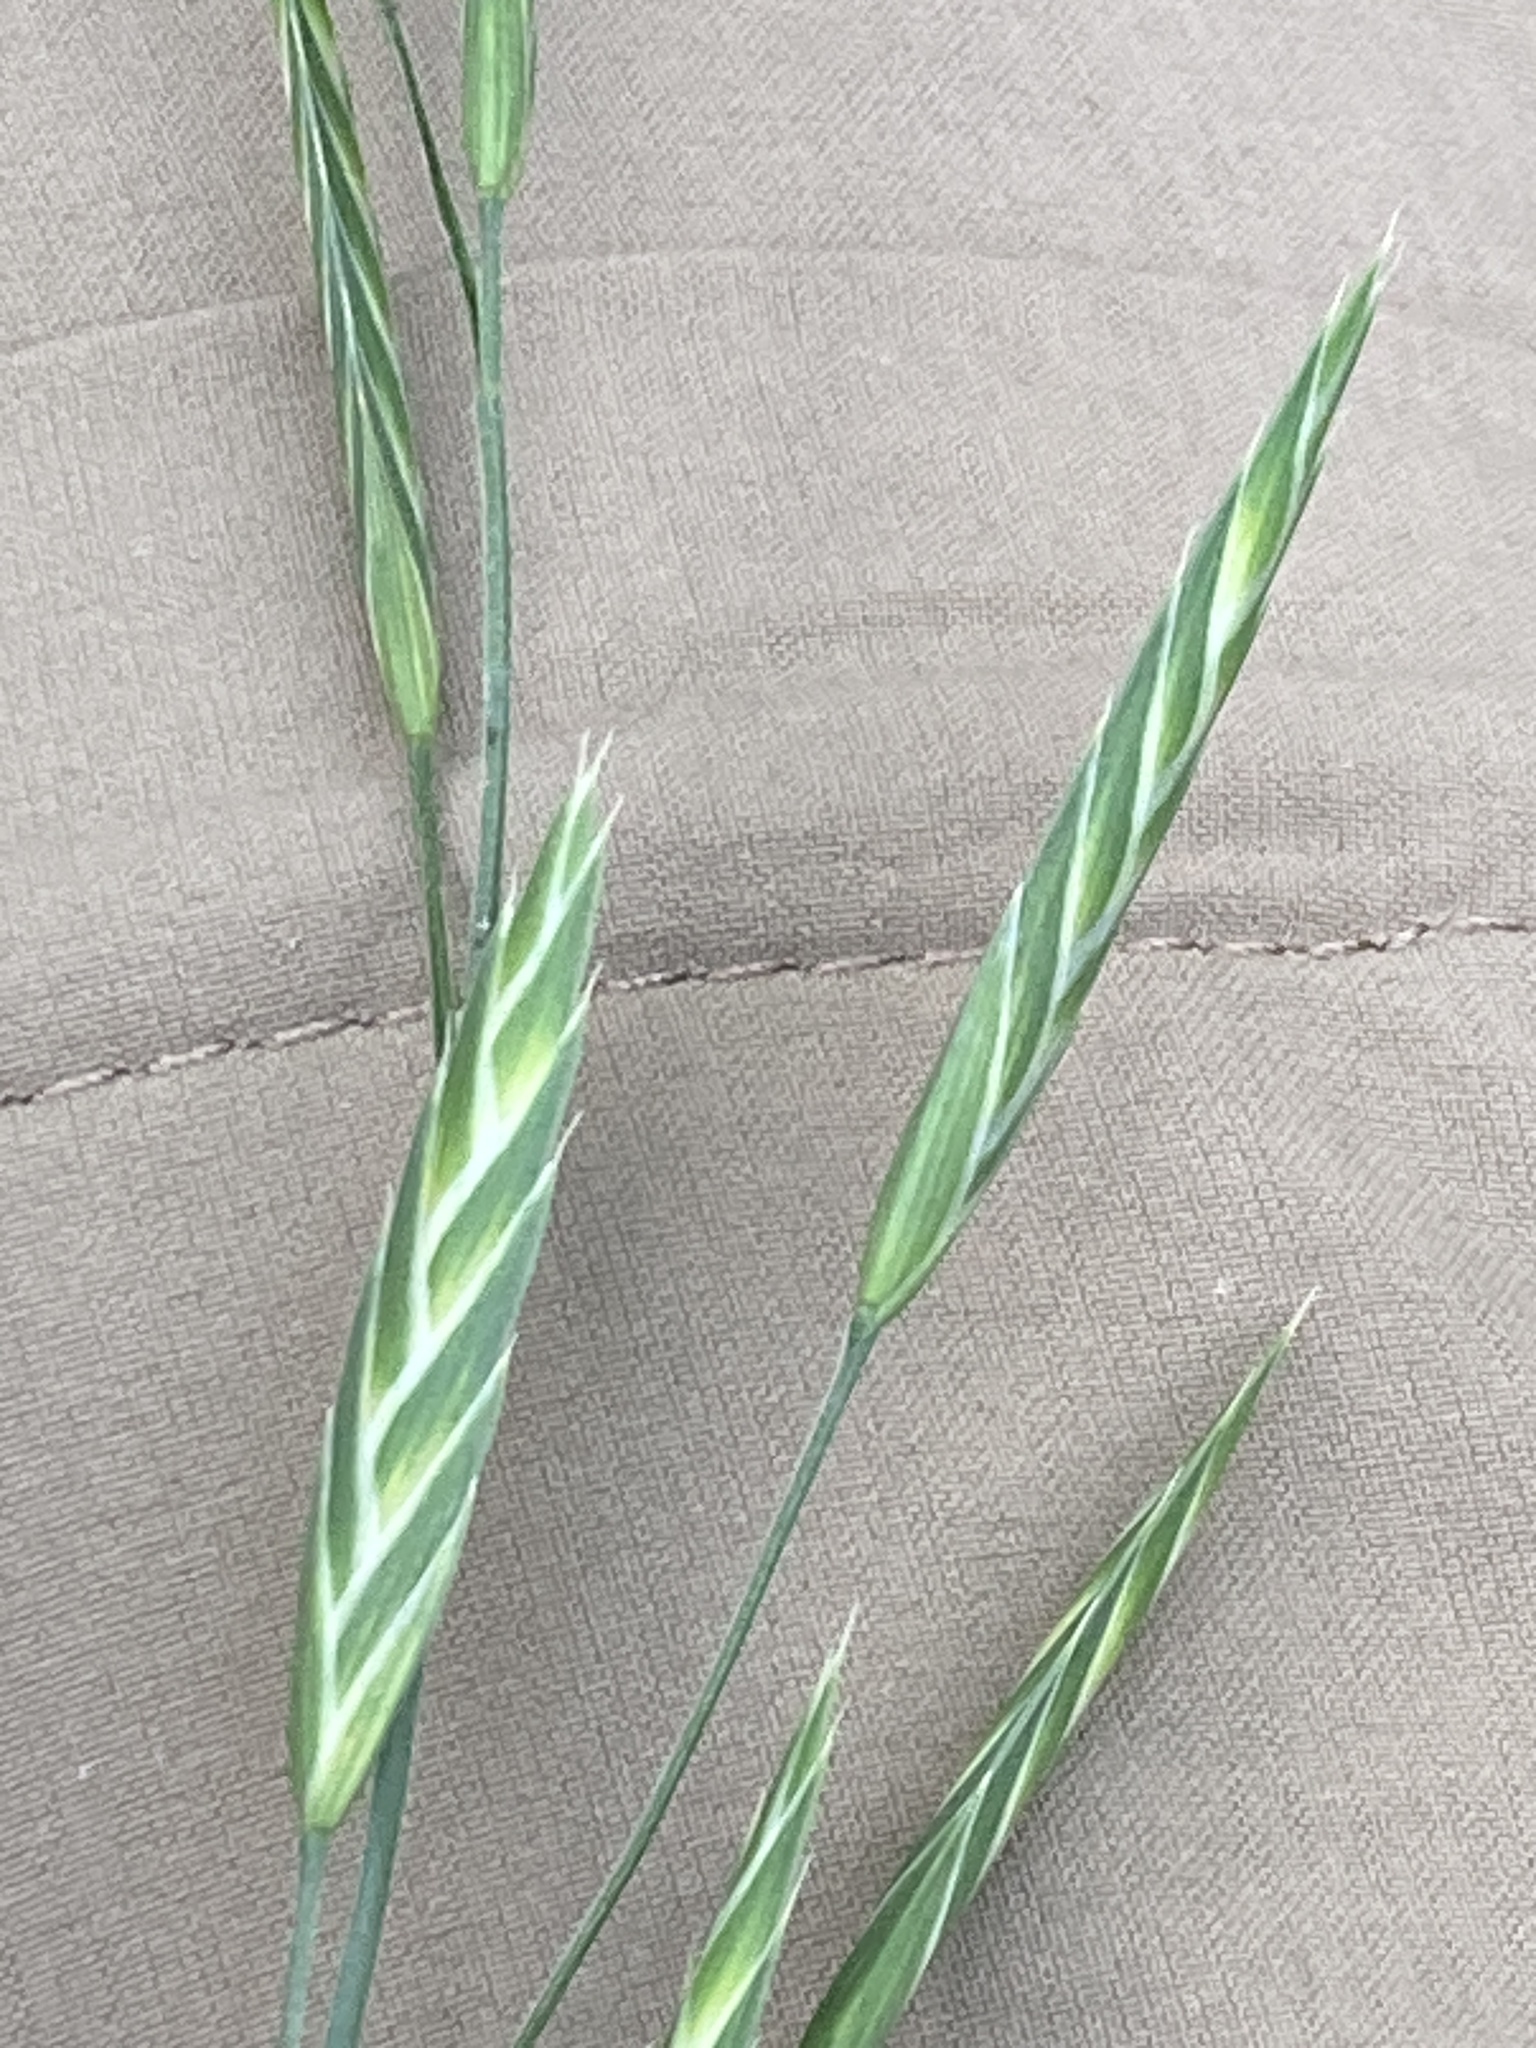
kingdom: Plantae
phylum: Tracheophyta
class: Liliopsida
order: Poales
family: Poaceae
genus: Bromus
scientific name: Bromus catharticus
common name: Rescuegrass
